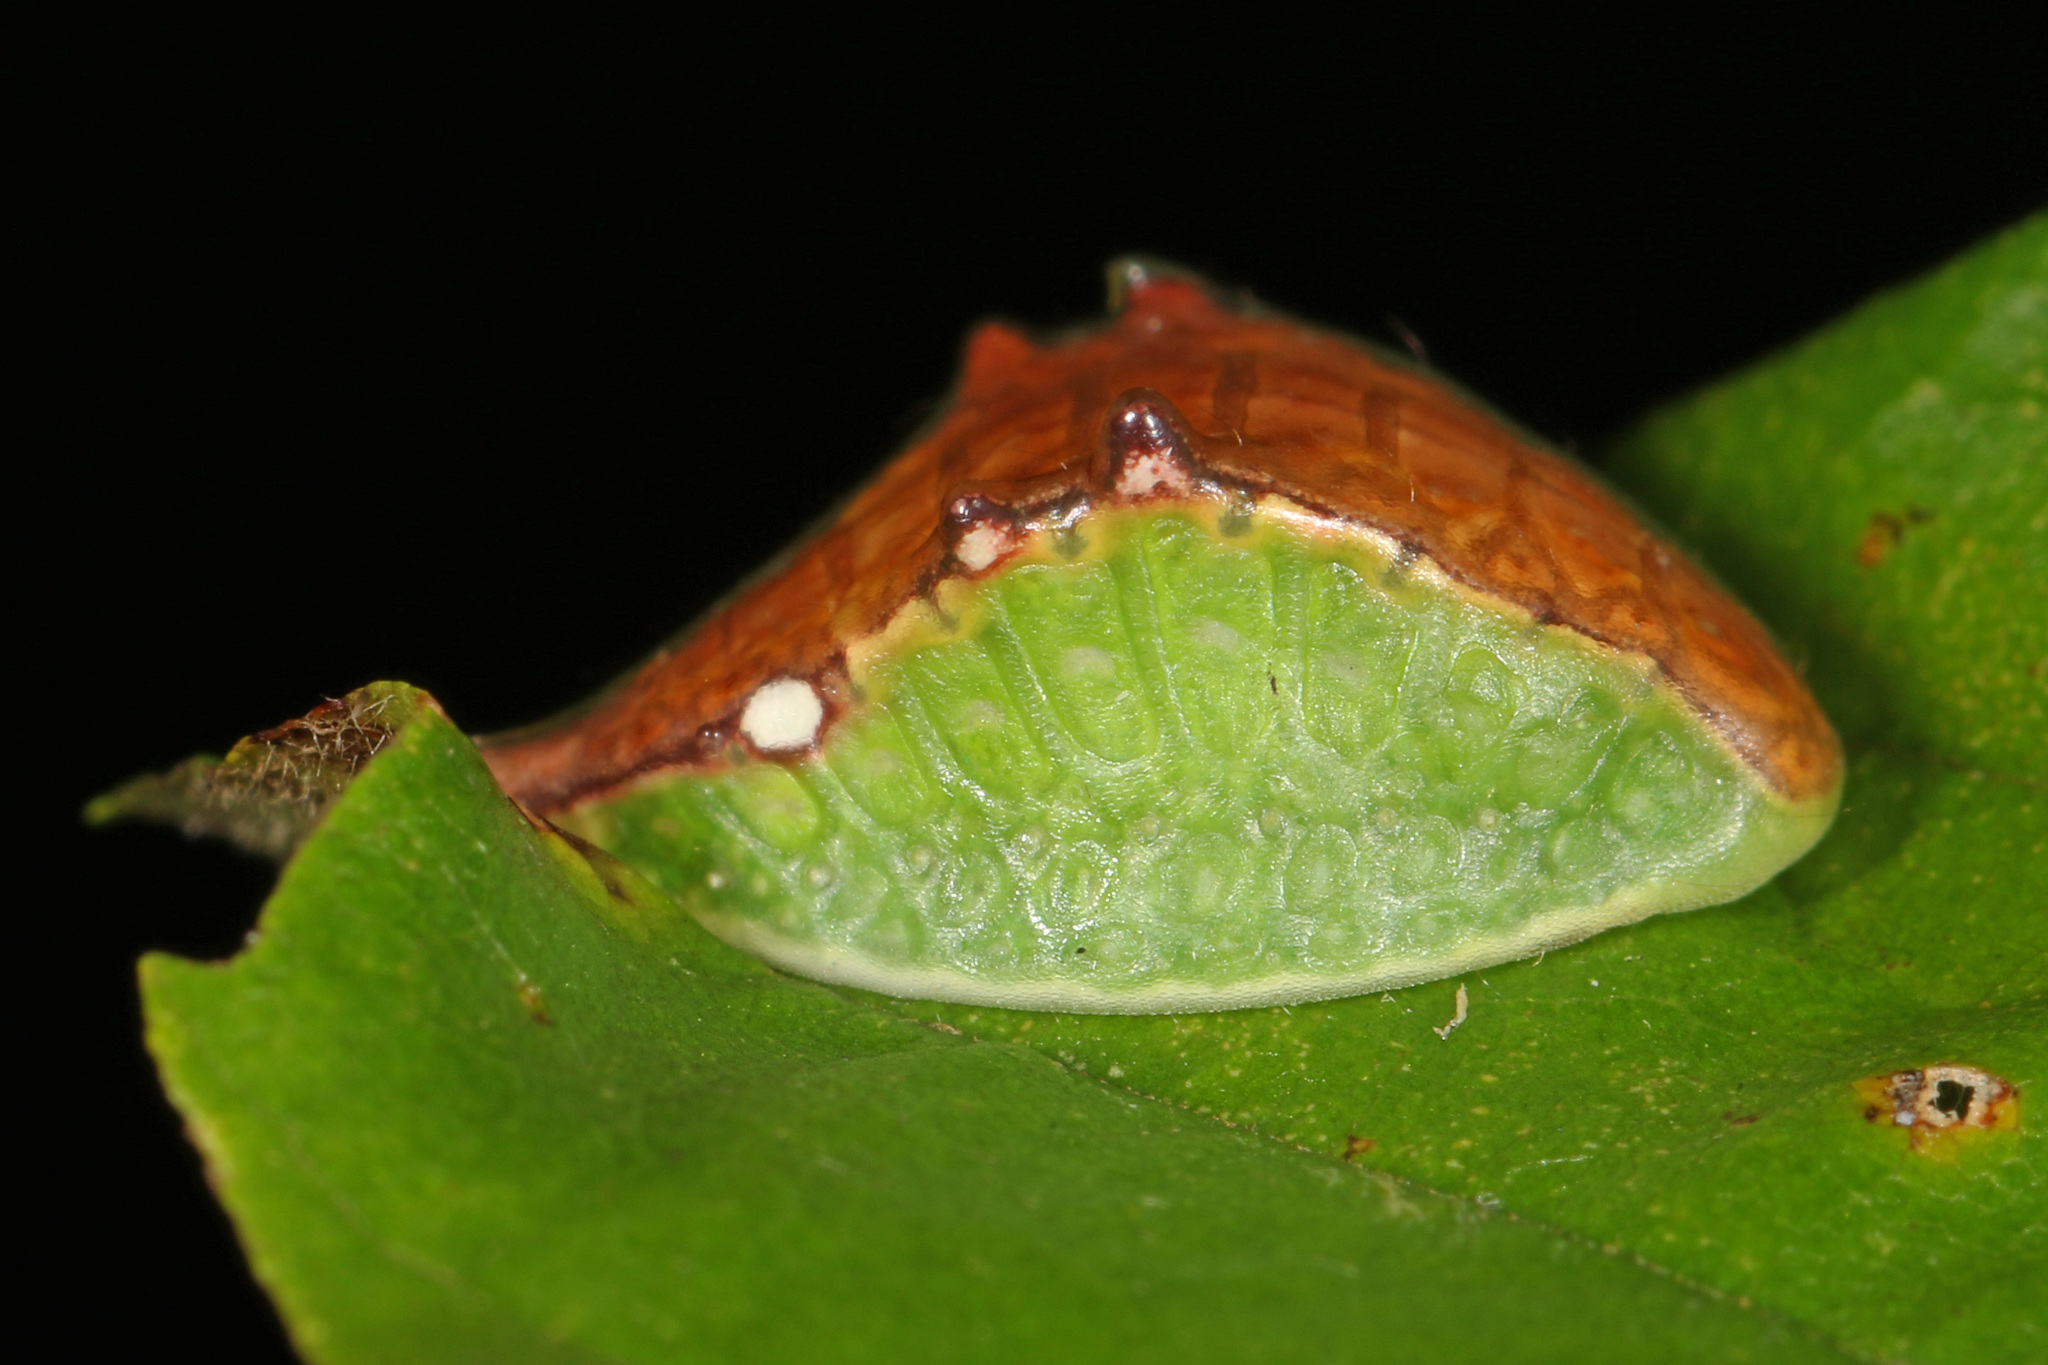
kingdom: Animalia
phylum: Arthropoda
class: Insecta
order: Lepidoptera
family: Limacodidae
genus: Prolimacodes
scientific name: Prolimacodes badia
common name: Skiff moth
